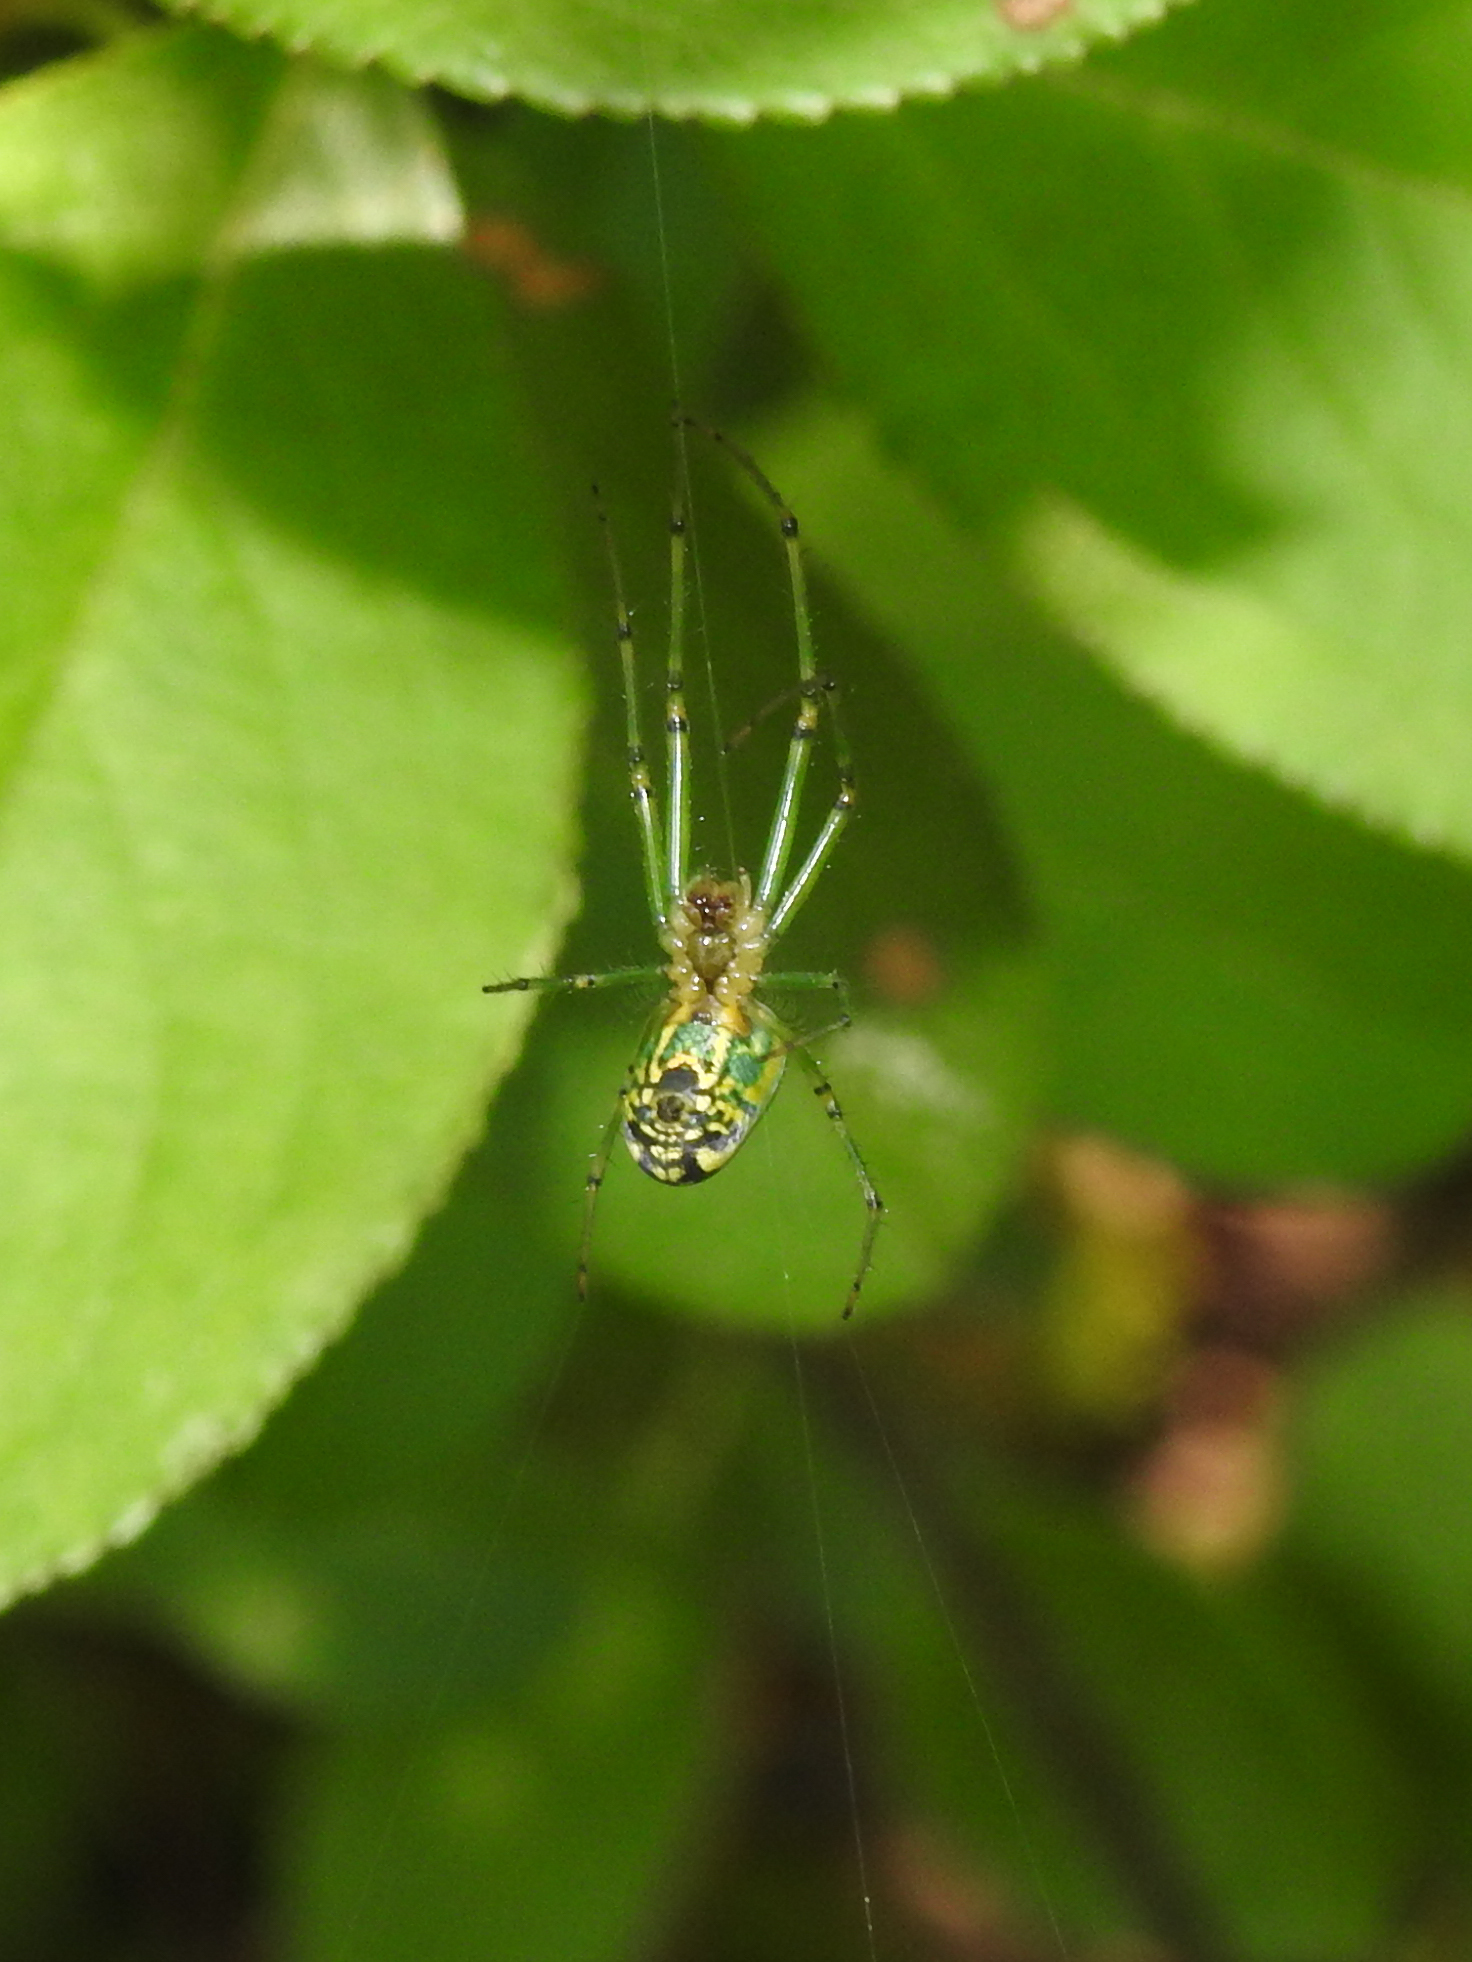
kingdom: Animalia
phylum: Arthropoda
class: Arachnida
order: Araneae
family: Tetragnathidae
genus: Leucauge
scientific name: Leucauge venusta
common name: Longjawed orb weavers
